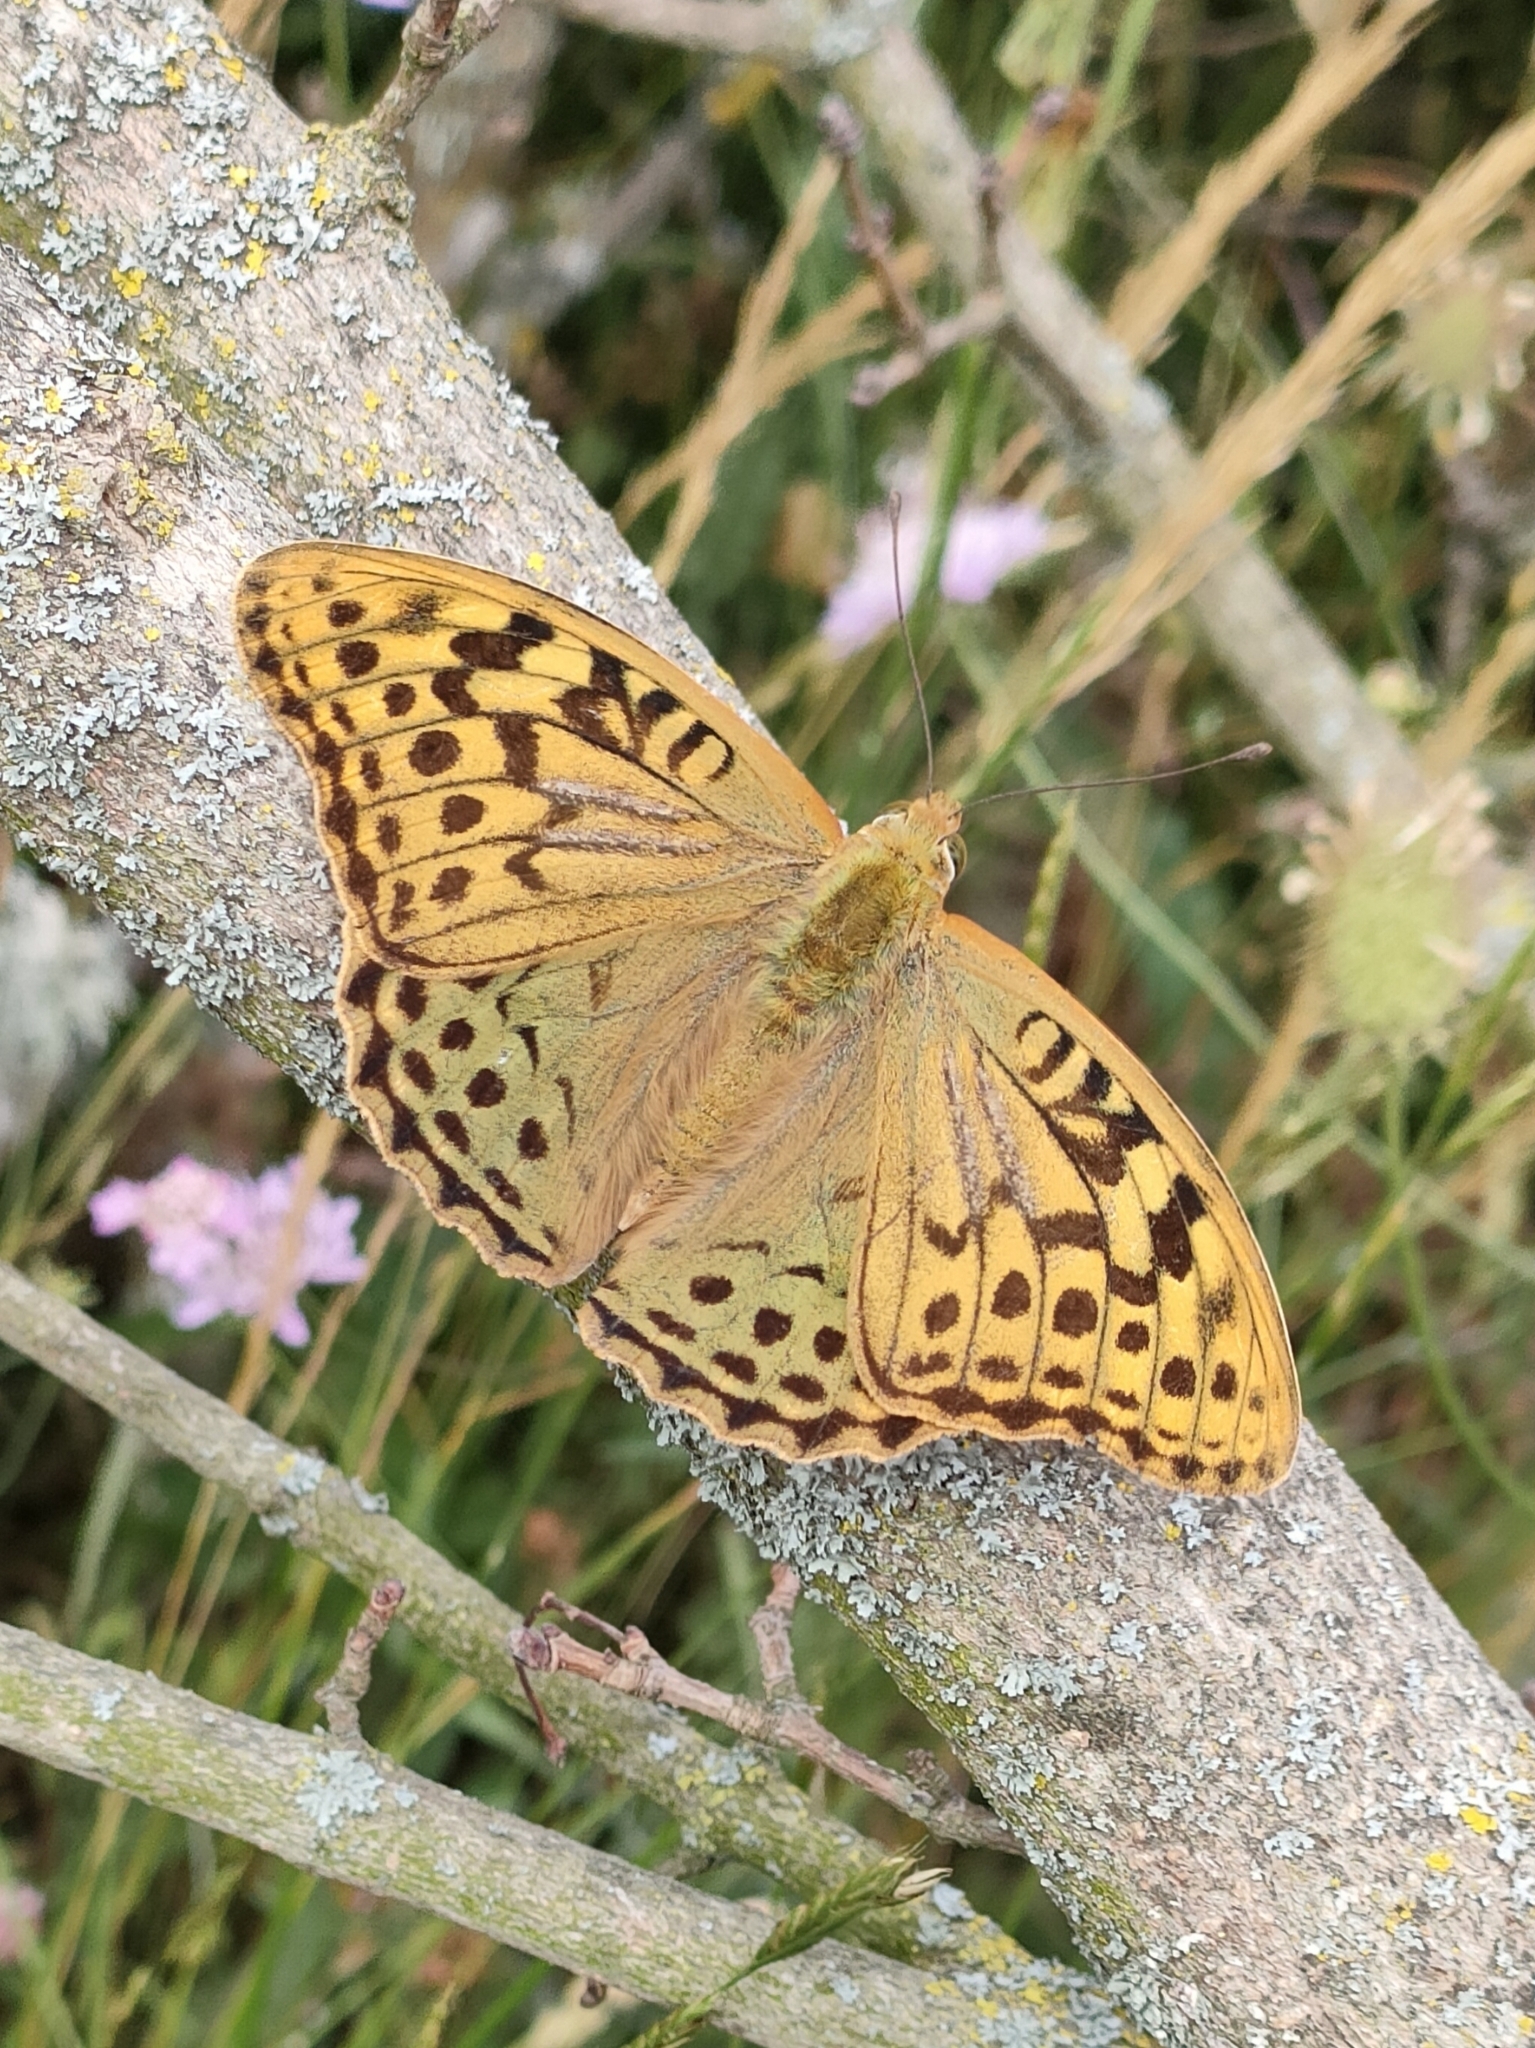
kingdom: Animalia
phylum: Arthropoda
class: Insecta
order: Lepidoptera
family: Nymphalidae
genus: Damora
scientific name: Damora pandora
